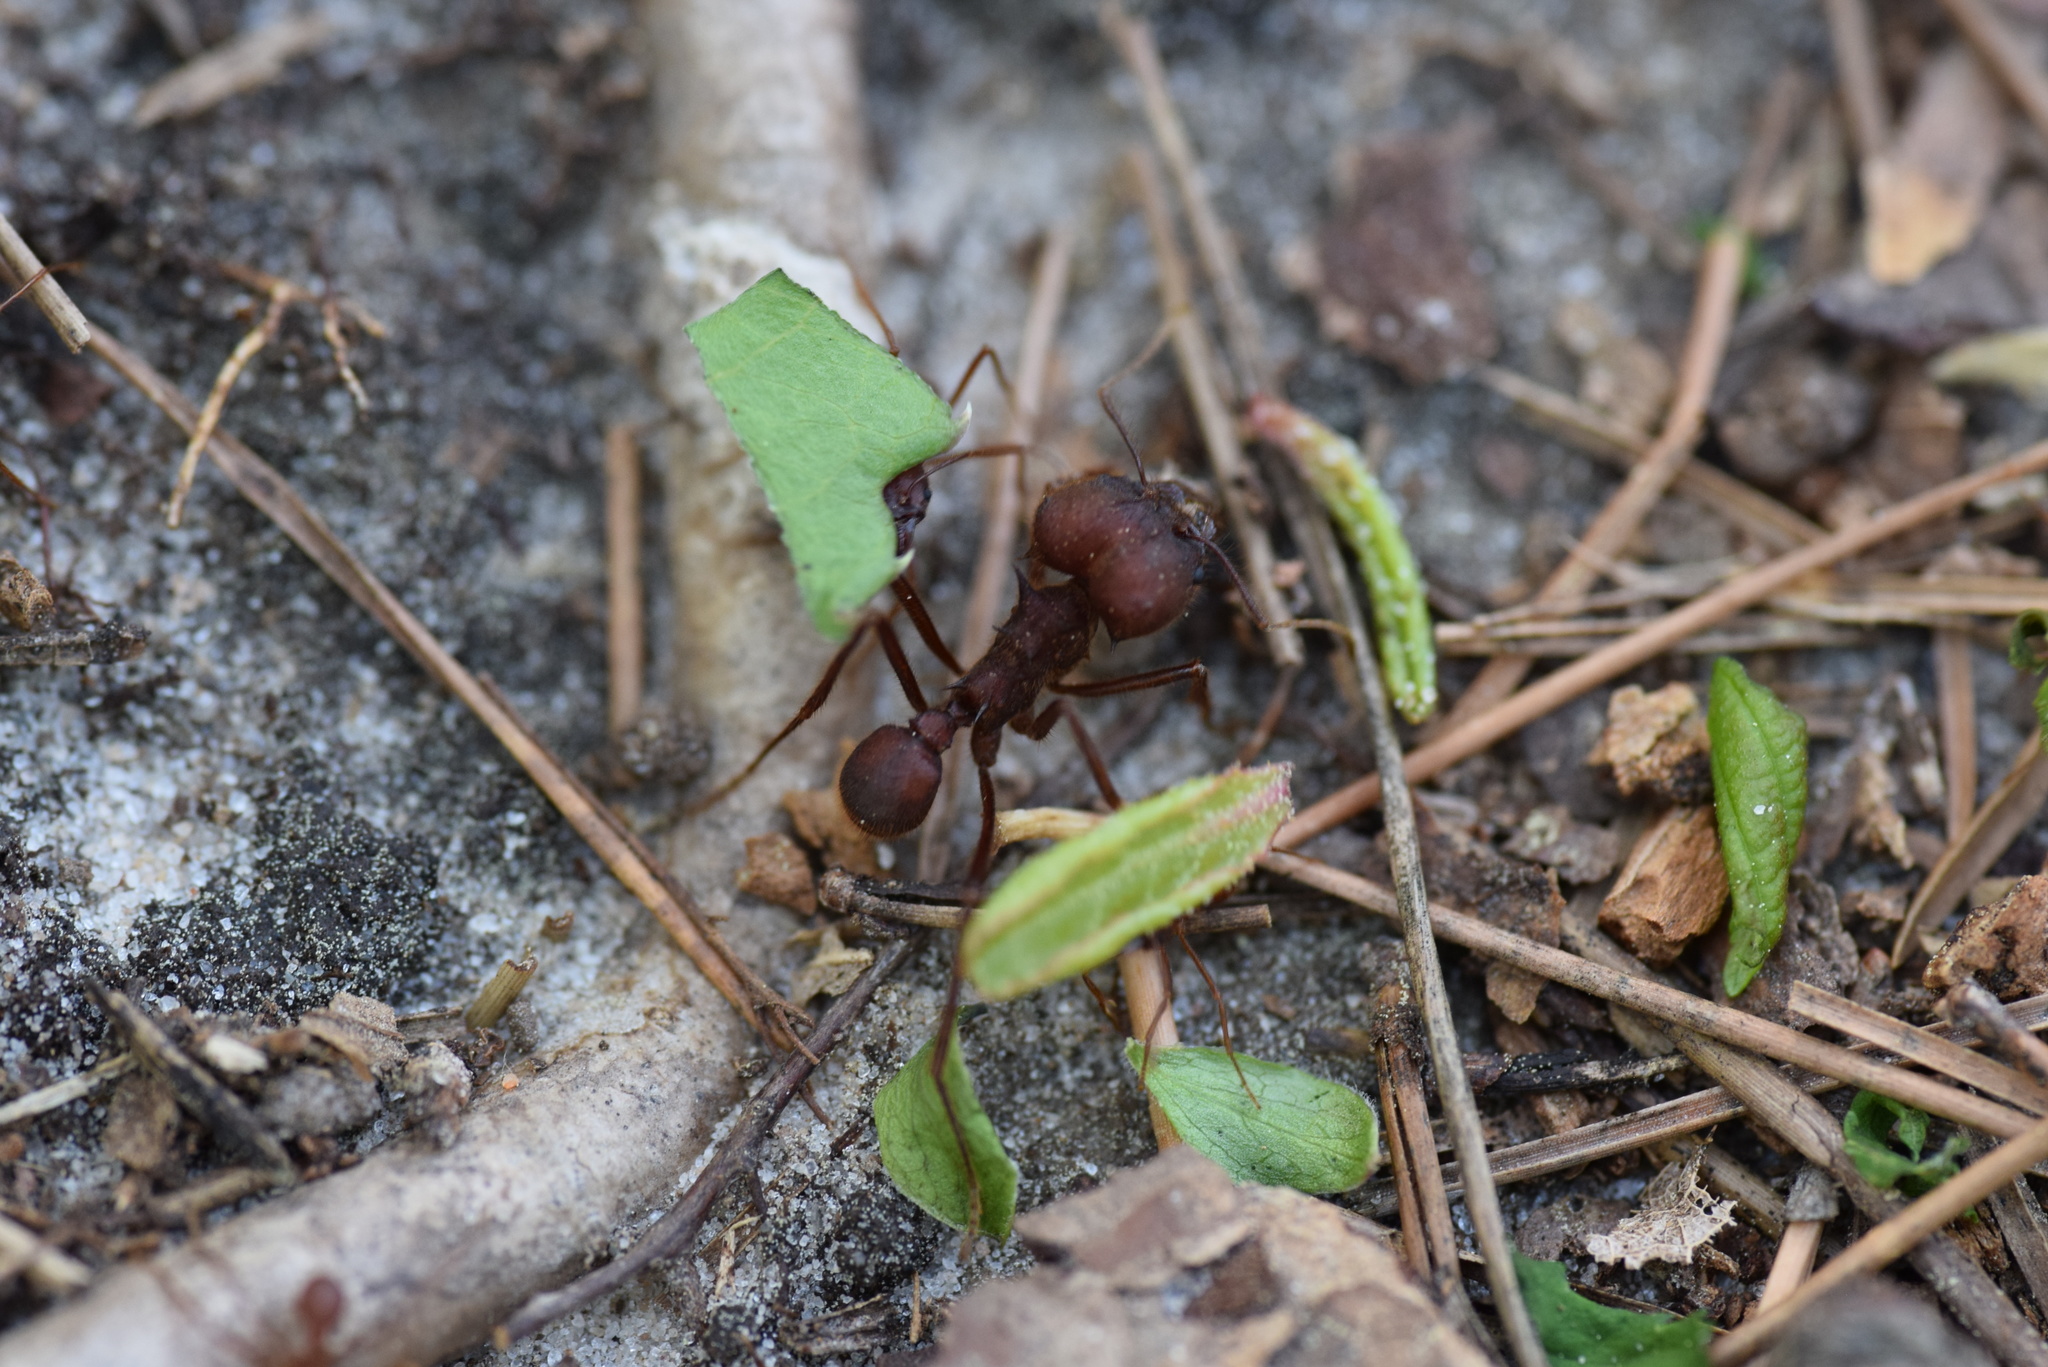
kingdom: Animalia
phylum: Arthropoda
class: Insecta
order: Hymenoptera
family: Formicidae
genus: Atta
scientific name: Atta texana
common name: Texas leafcutting ant
